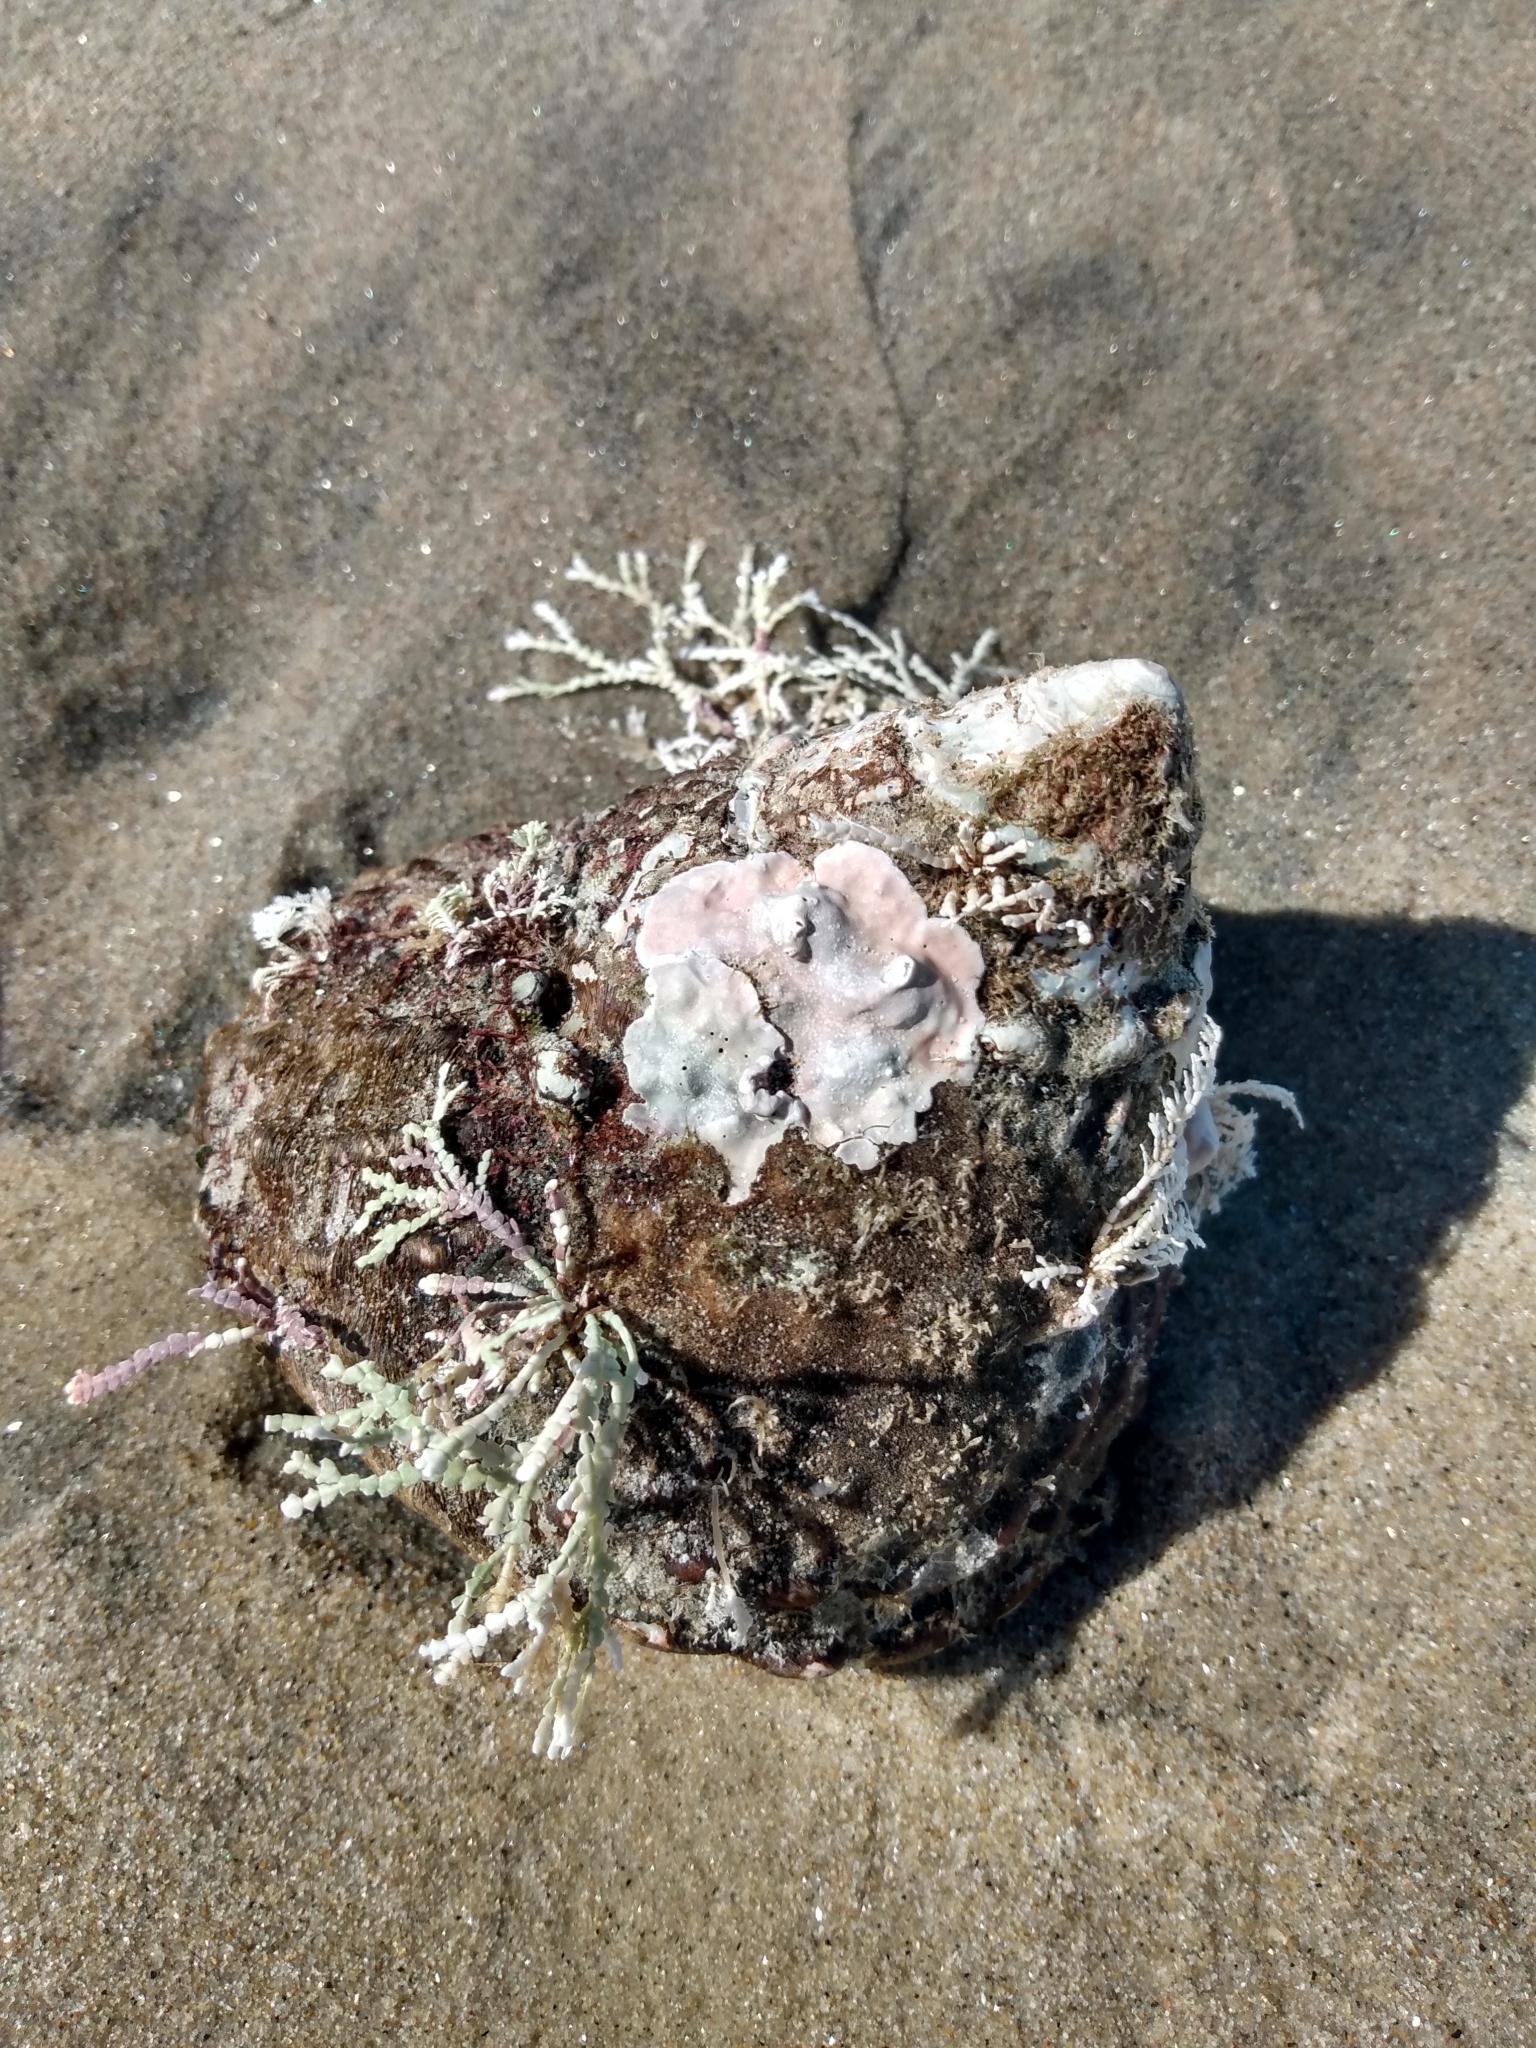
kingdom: Animalia
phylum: Mollusca
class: Gastropoda
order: Trochida
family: Turbinidae
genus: Megastraea
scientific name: Megastraea undosa
